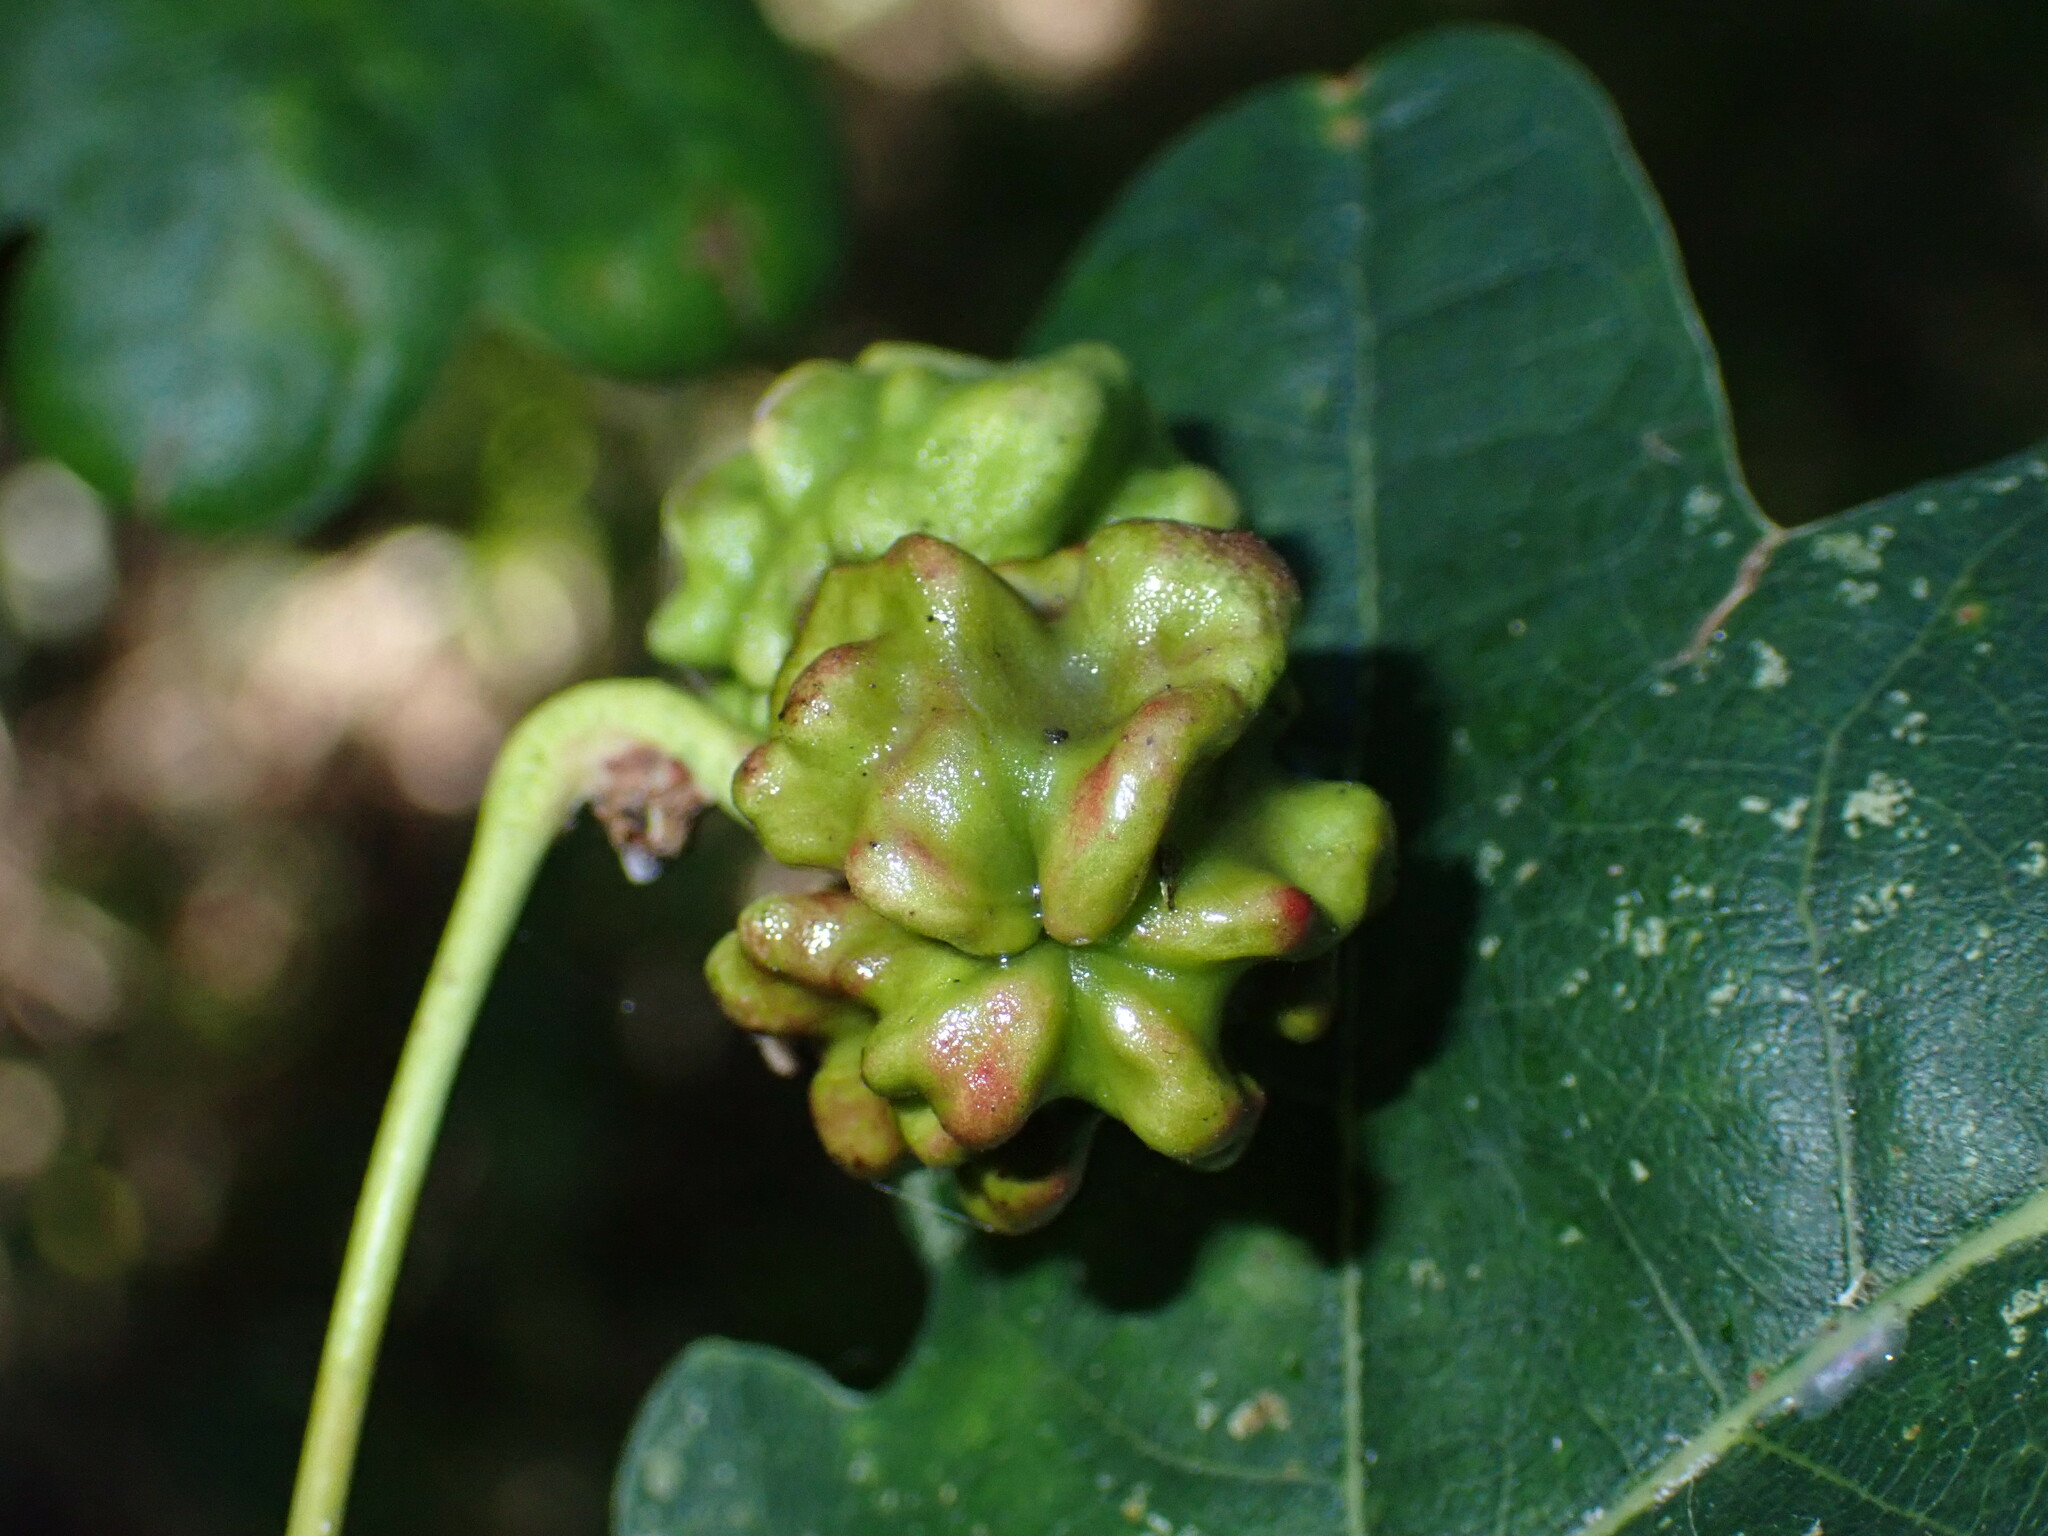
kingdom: Animalia
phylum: Arthropoda
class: Insecta
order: Hymenoptera
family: Cynipidae
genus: Andricus
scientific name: Andricus quercuscalicis
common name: Knopper gall
